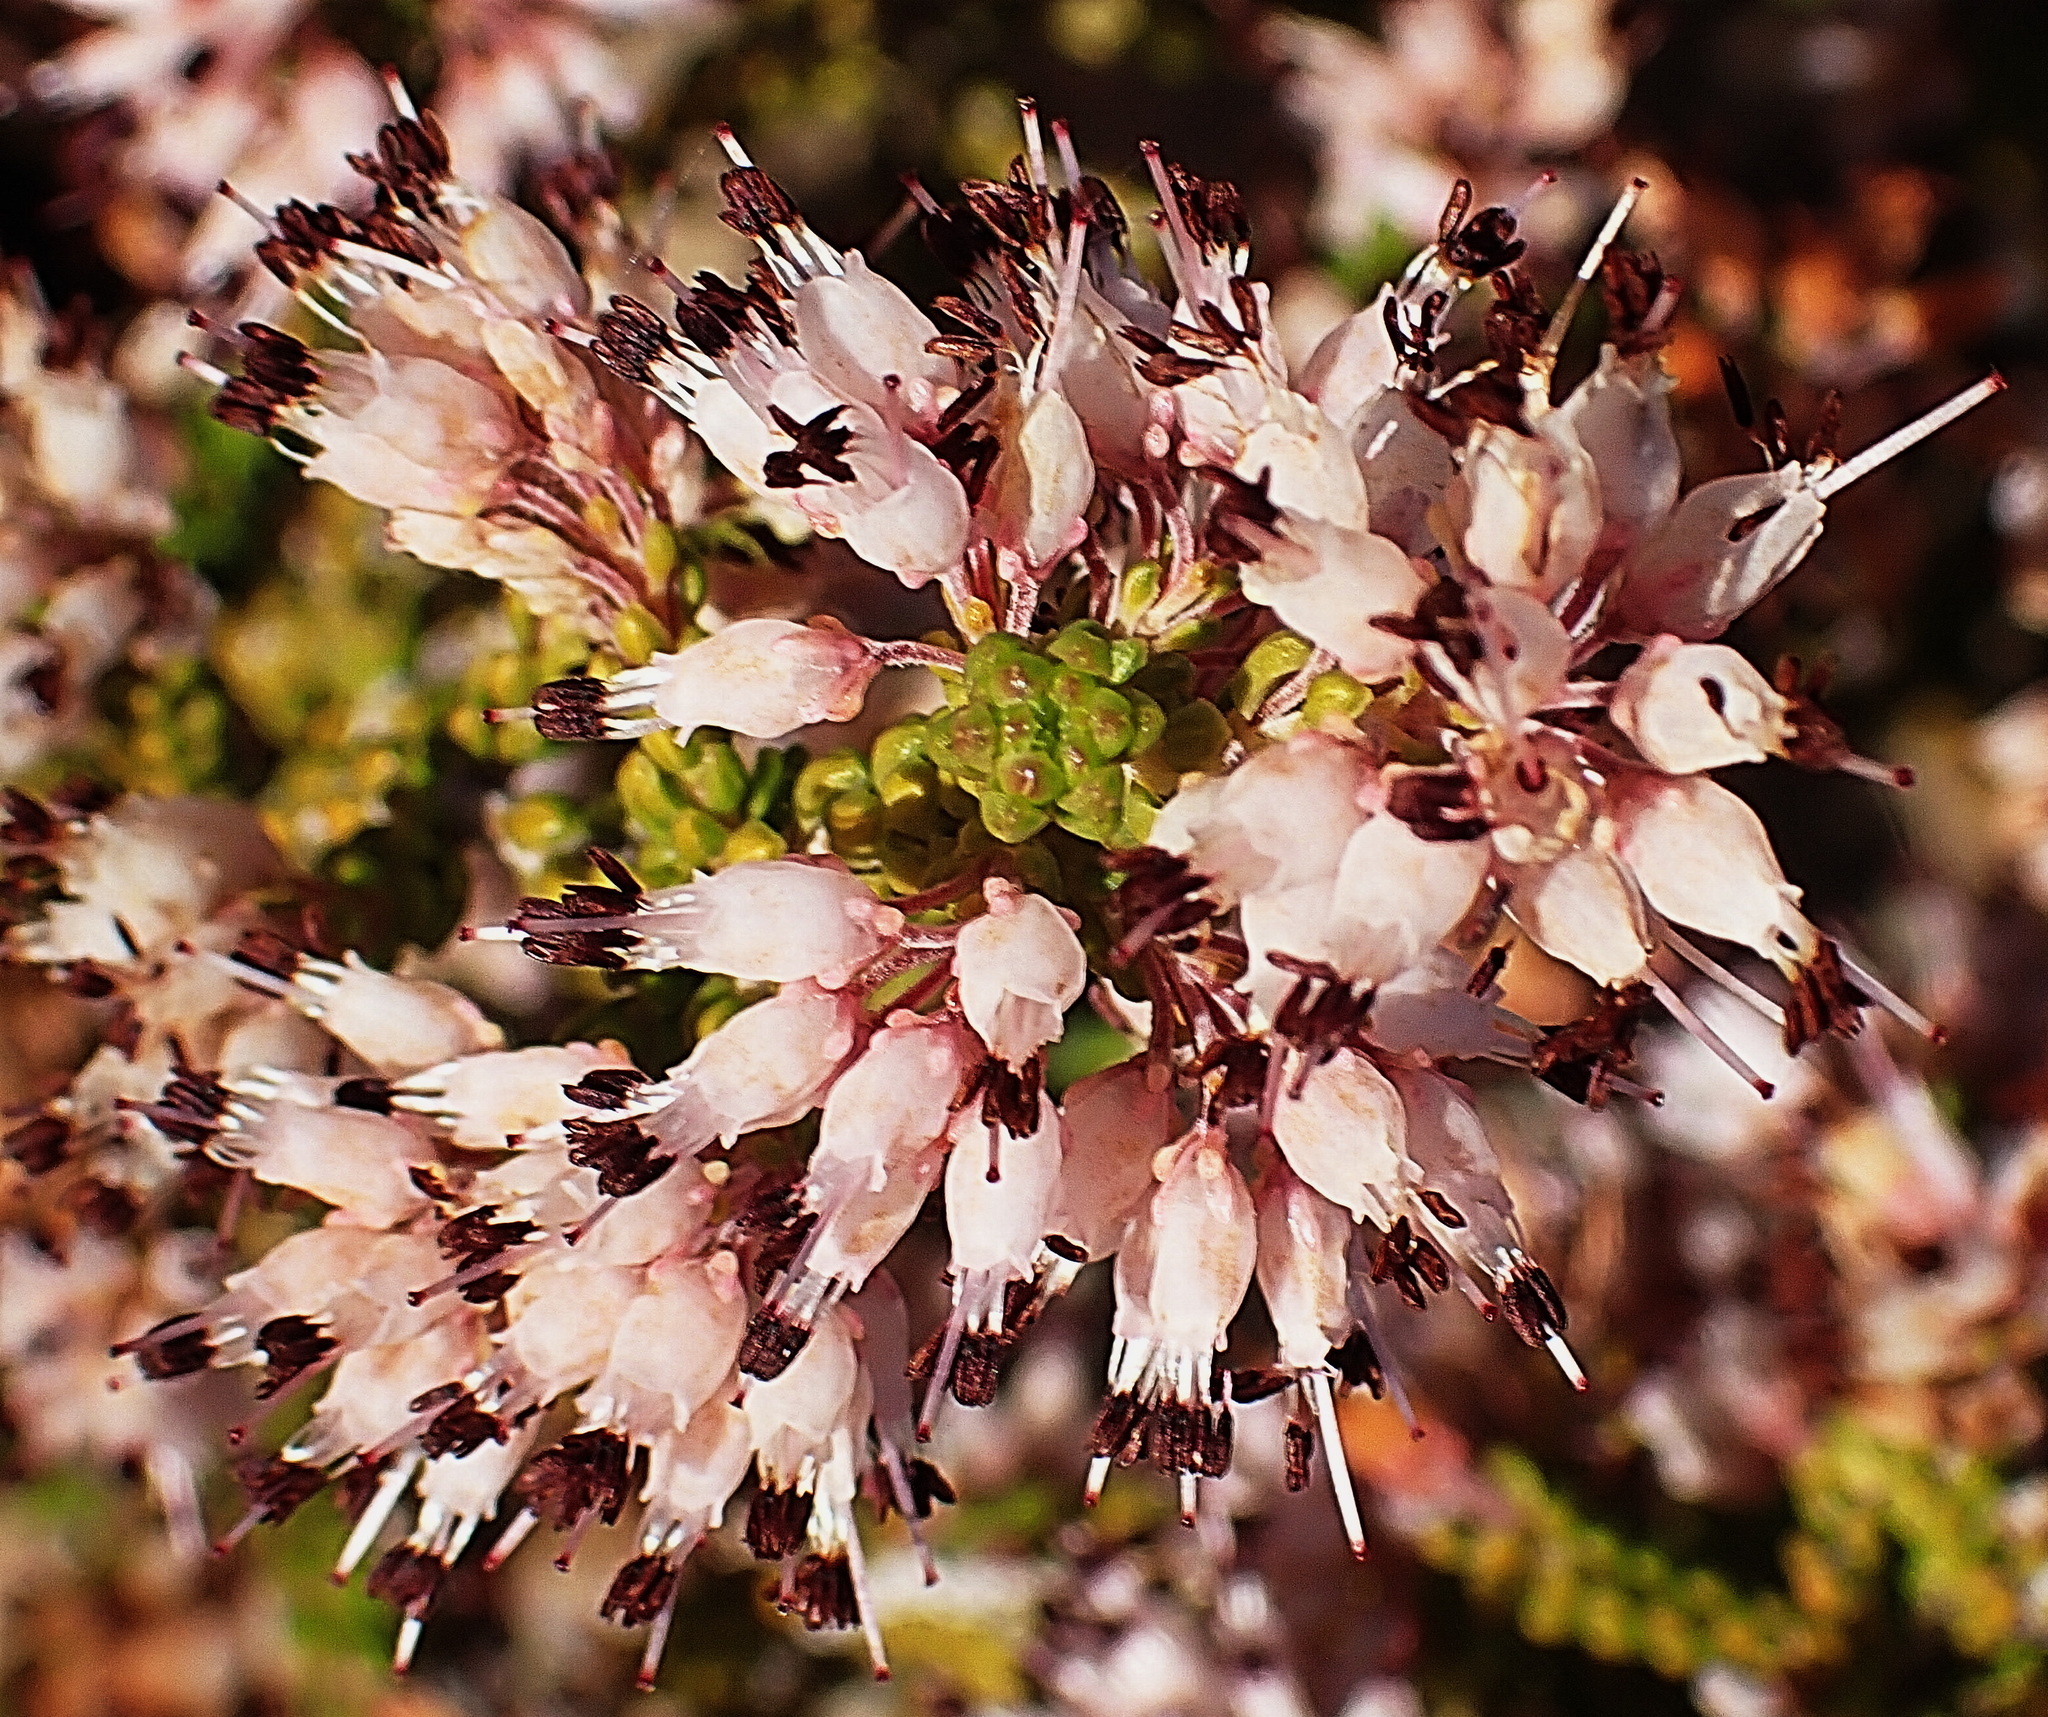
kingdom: Plantae
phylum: Tracheophyta
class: Magnoliopsida
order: Ericales
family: Ericaceae
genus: Erica
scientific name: Erica petraea
